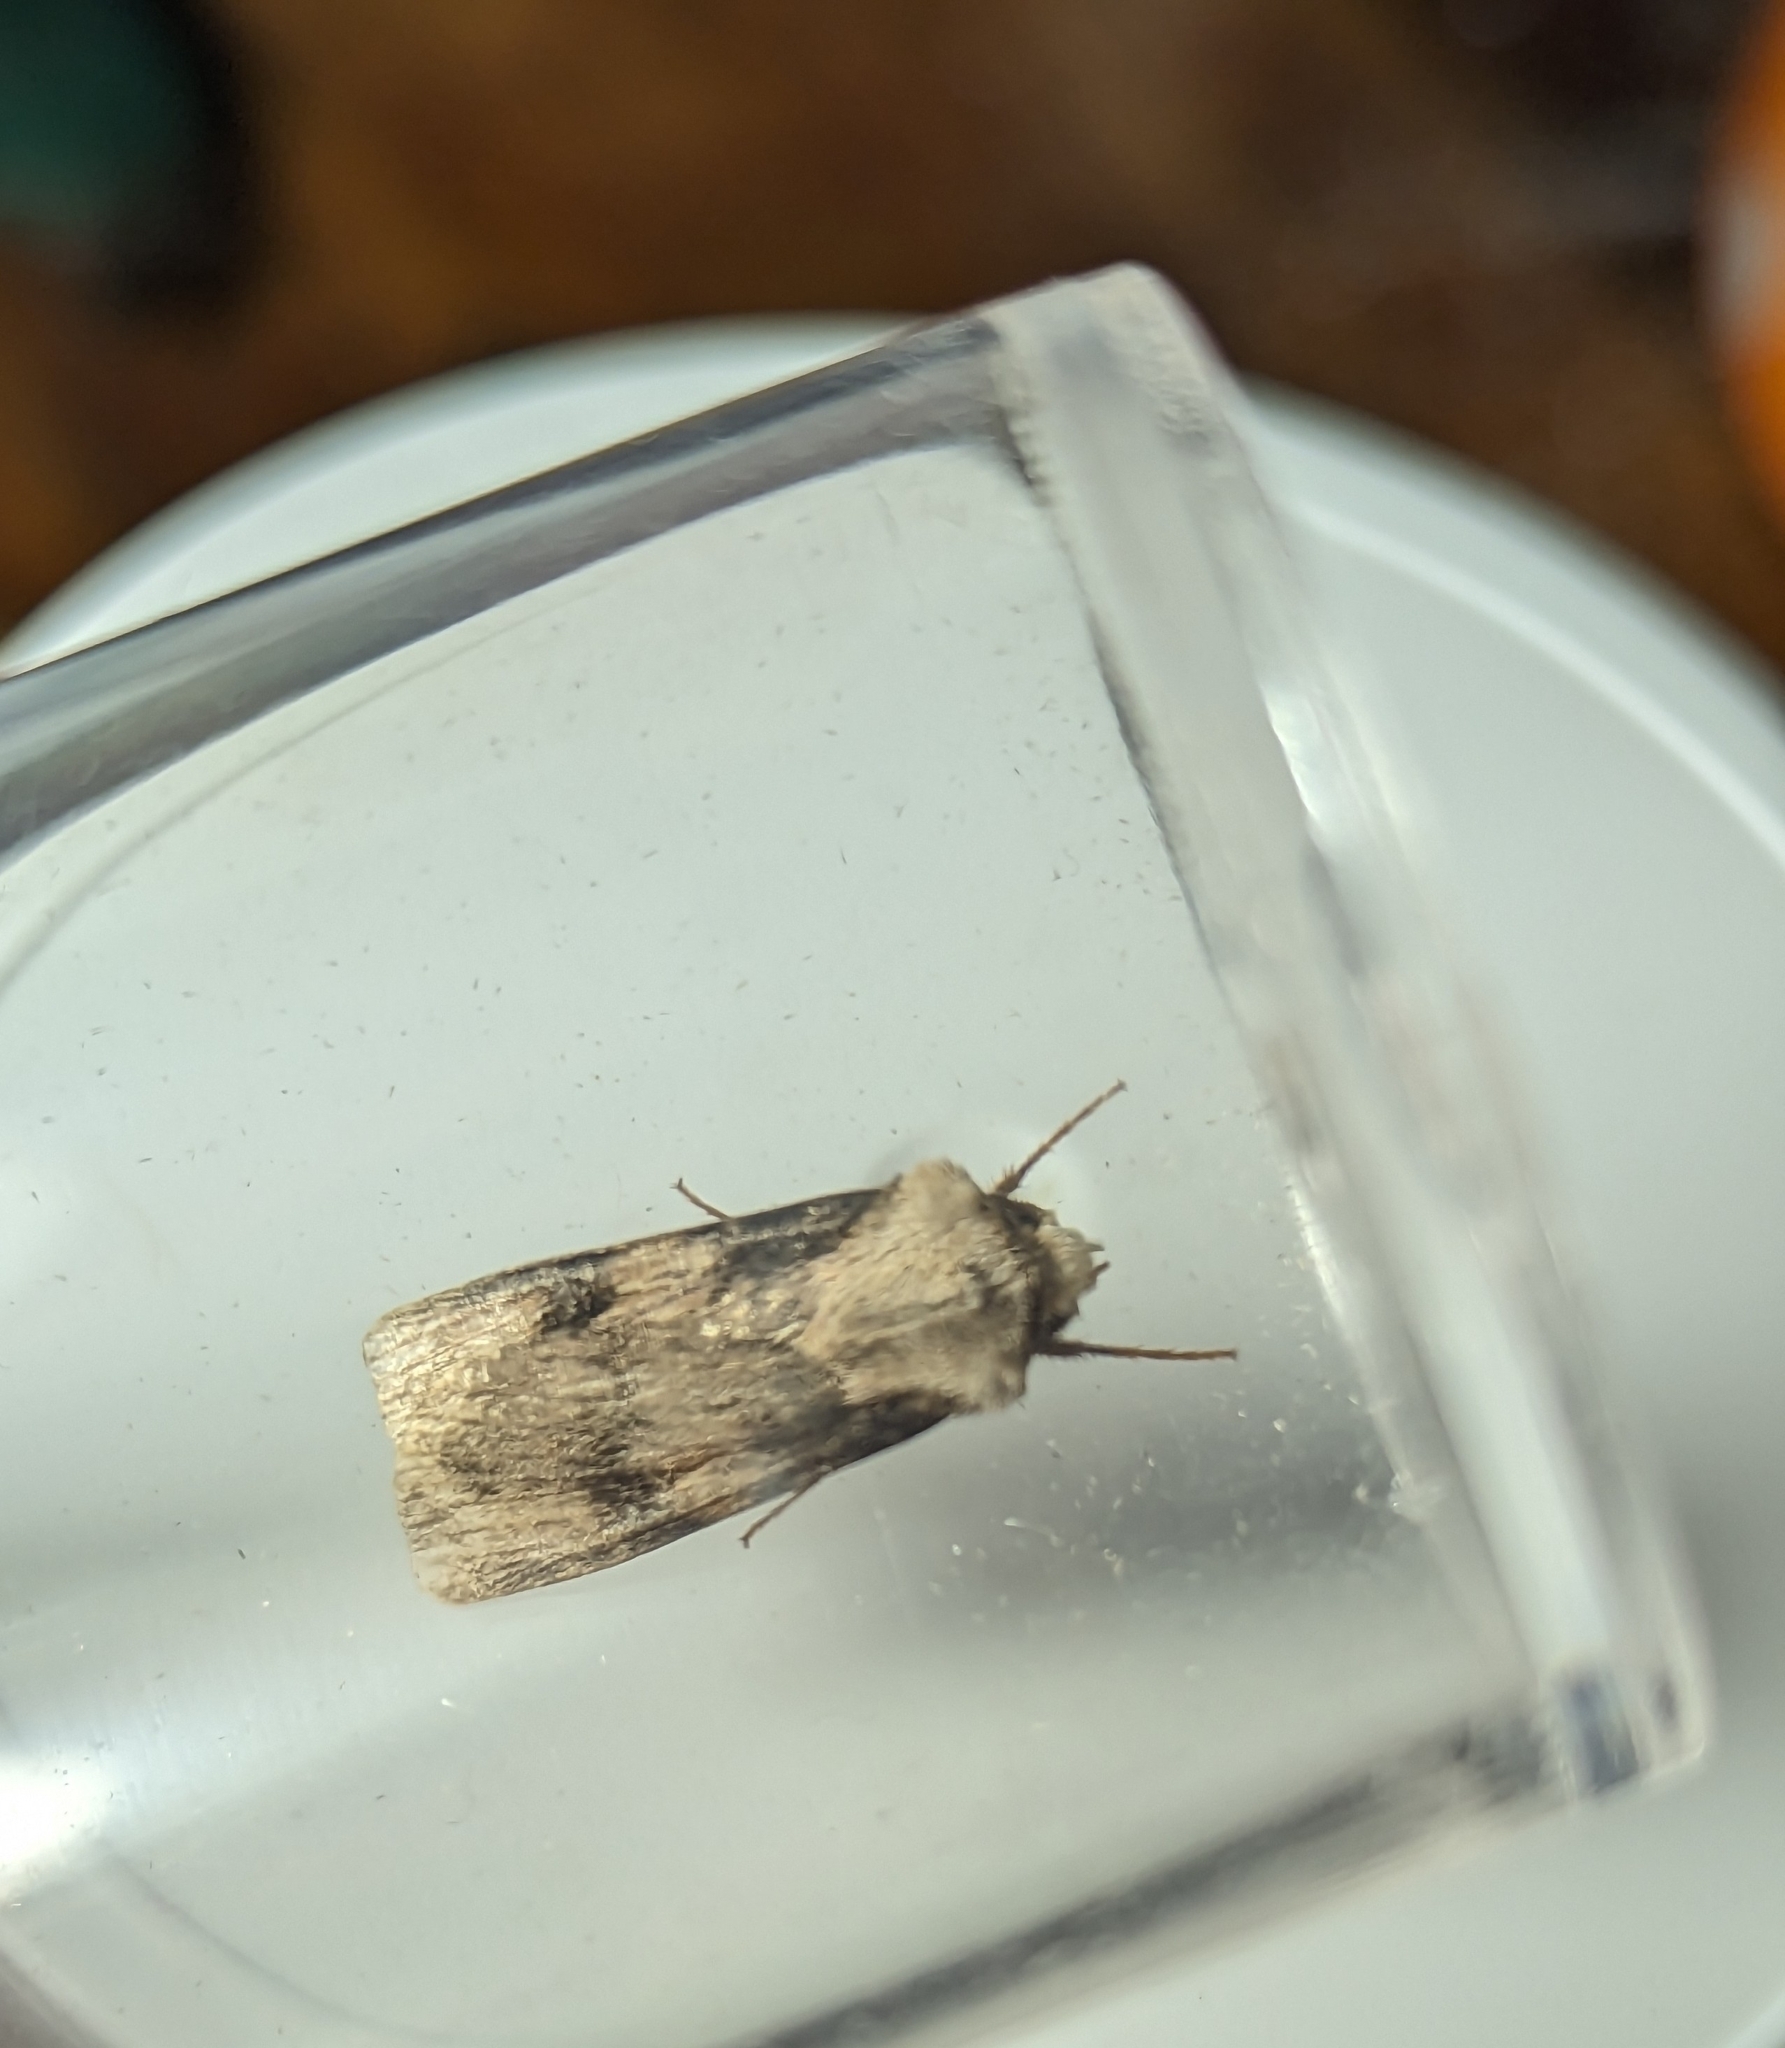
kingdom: Animalia
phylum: Arthropoda
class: Insecta
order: Lepidoptera
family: Noctuidae
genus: Agrotis
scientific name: Agrotis puta
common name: Shuttle-shaped dart
